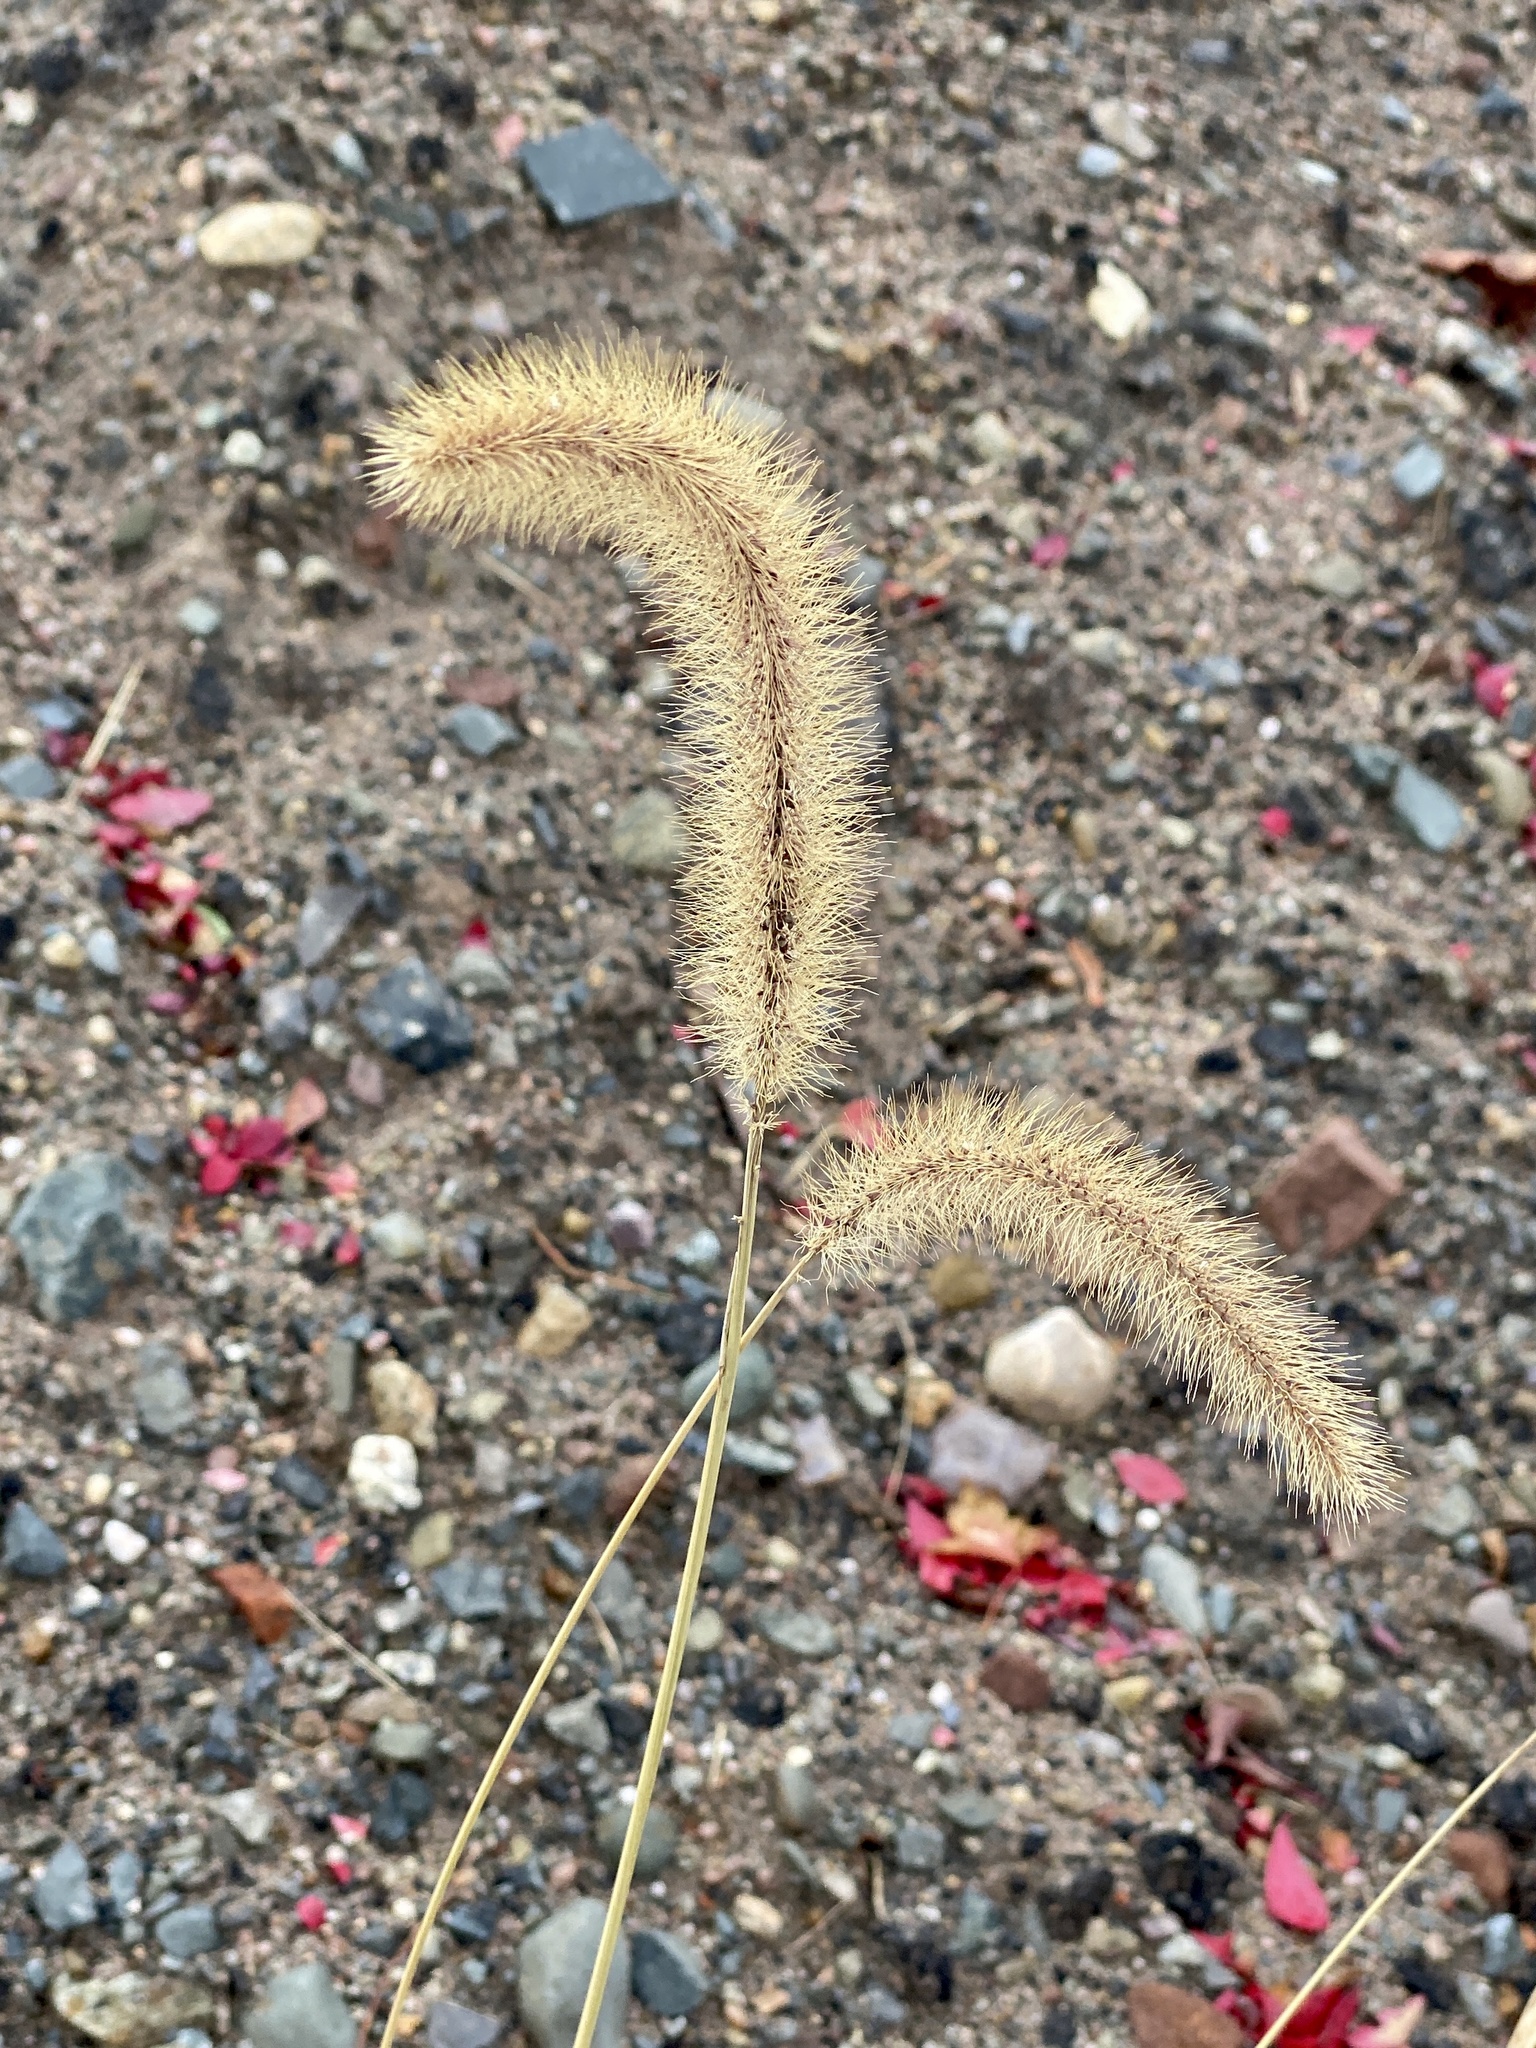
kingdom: Plantae
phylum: Tracheophyta
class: Liliopsida
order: Poales
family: Poaceae
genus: Setaria
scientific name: Setaria faberi
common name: Nodding bristle-grass
